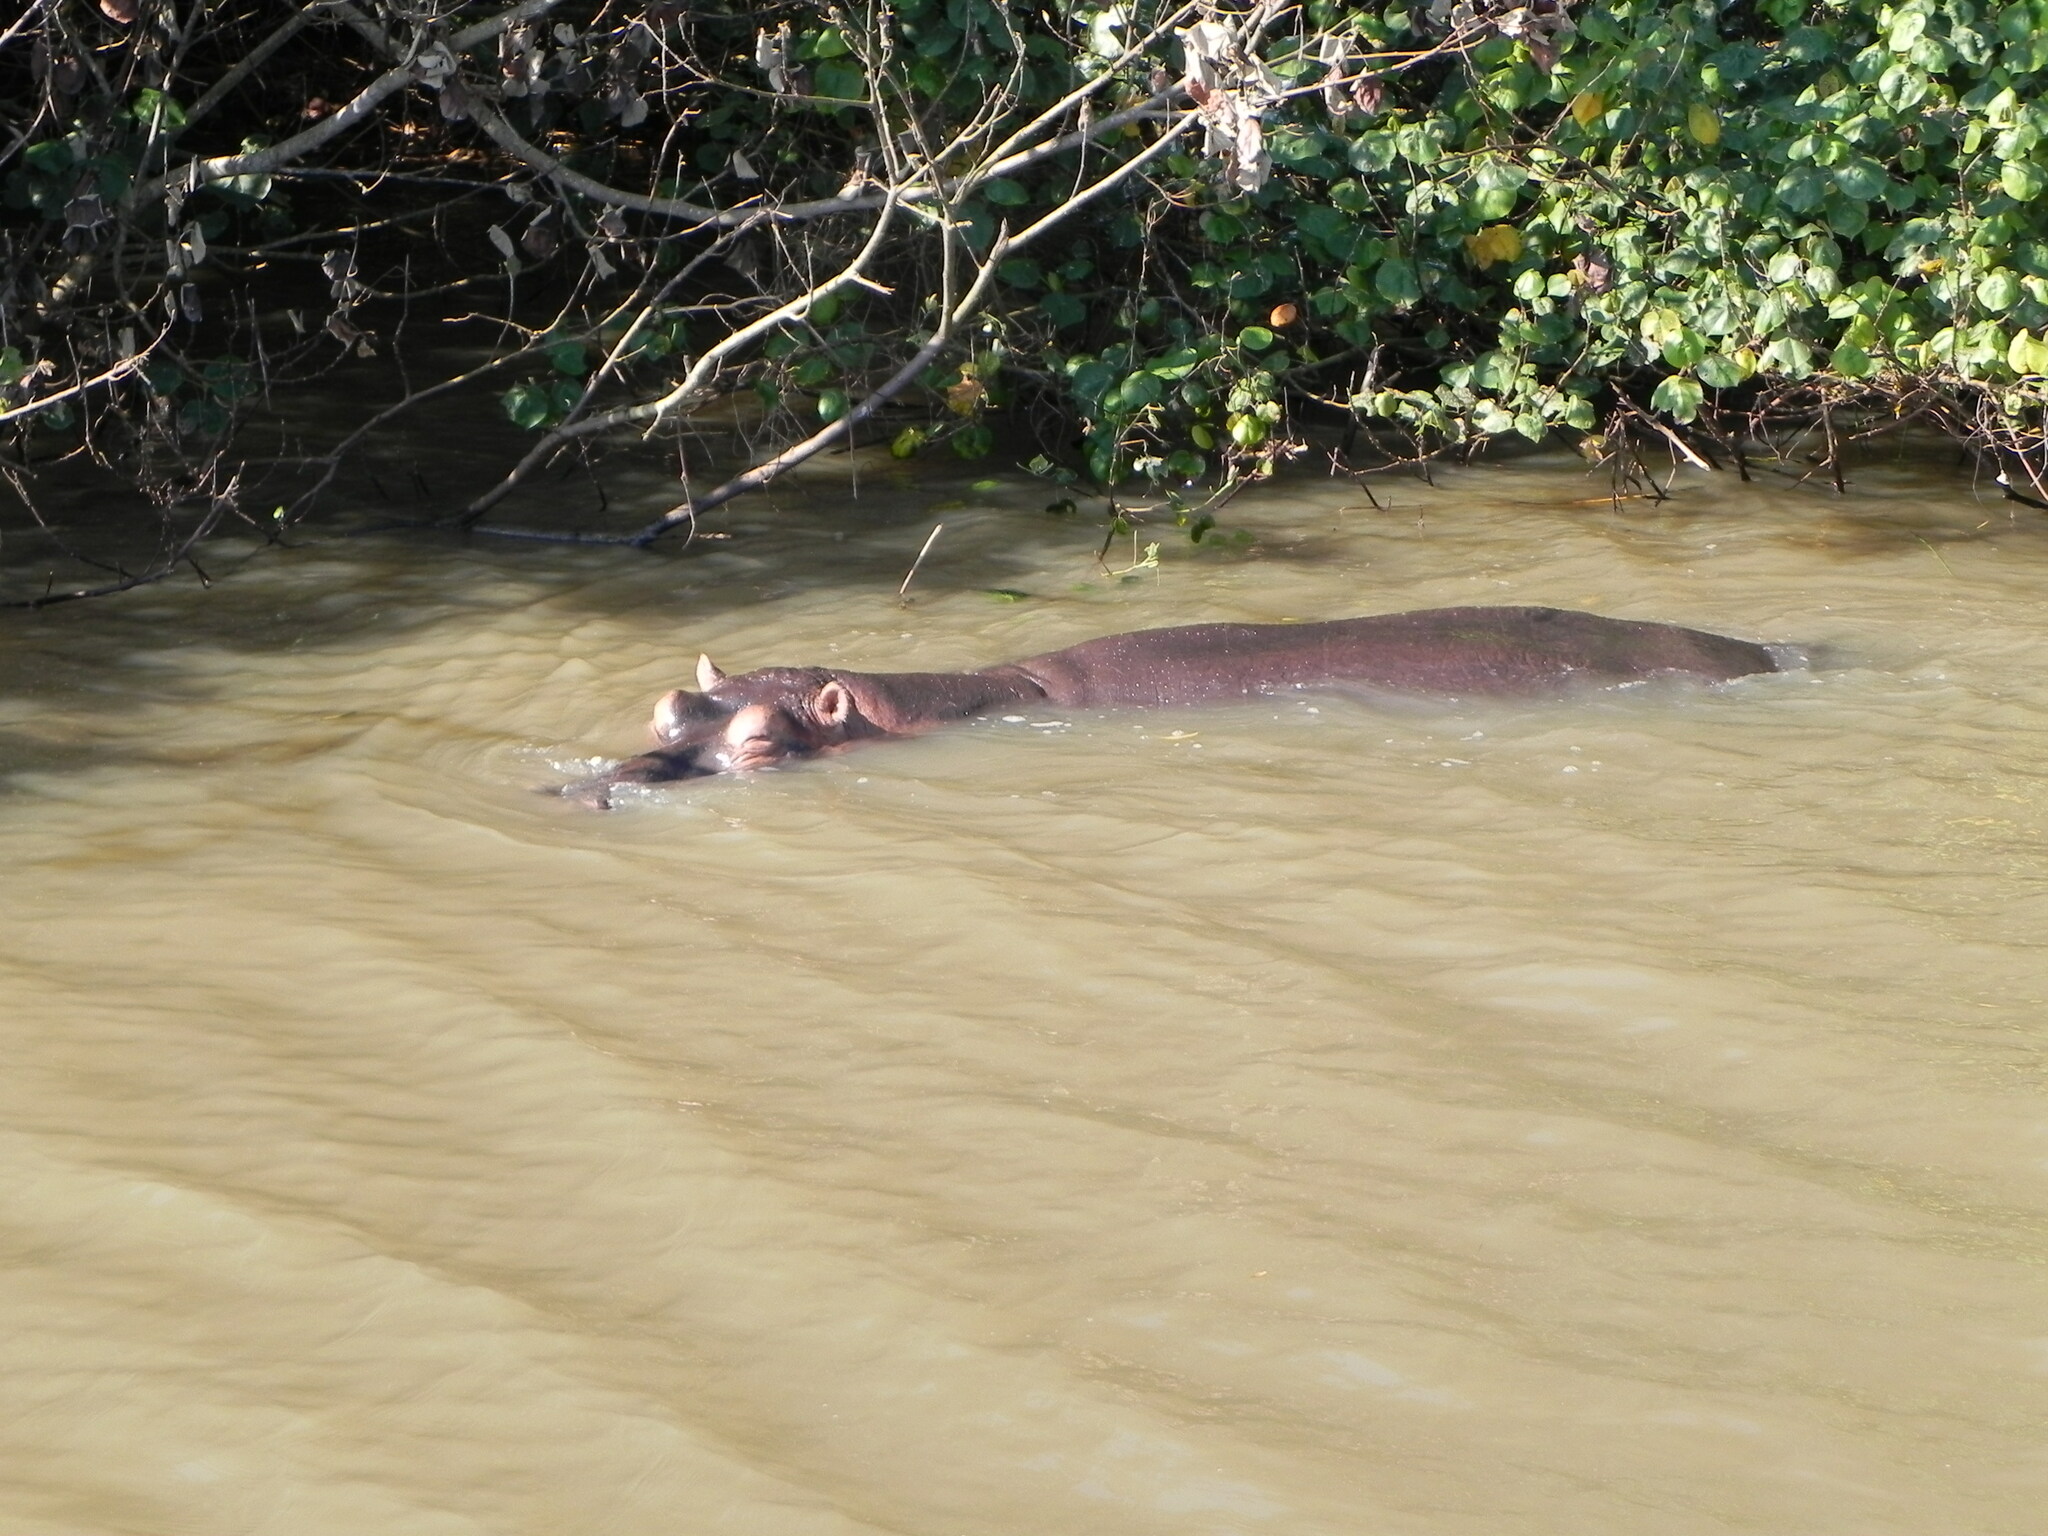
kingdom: Animalia
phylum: Chordata
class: Mammalia
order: Artiodactyla
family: Hippopotamidae
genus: Hippopotamus
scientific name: Hippopotamus amphibius
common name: Common hippopotamus
